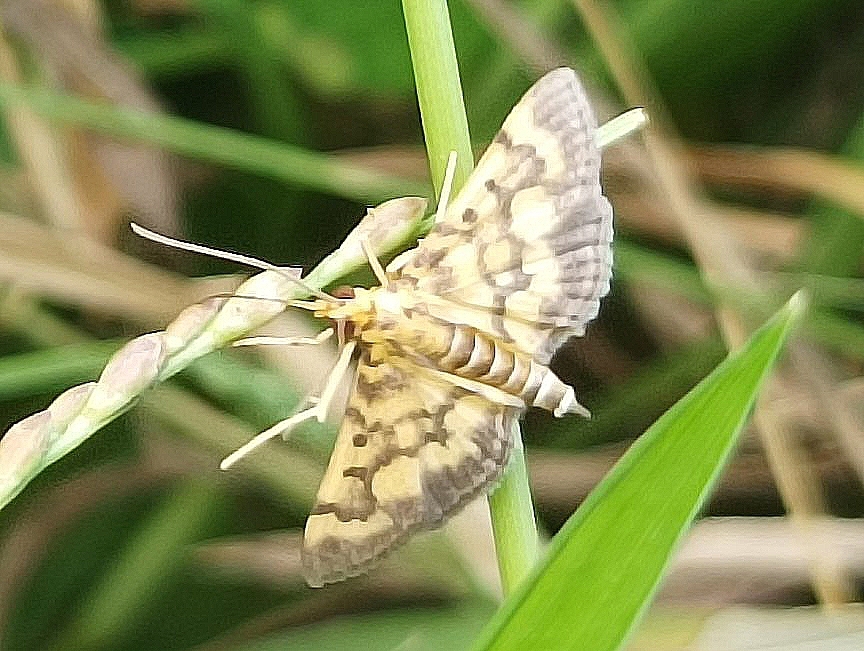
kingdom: Animalia
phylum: Arthropoda
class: Insecta
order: Lepidoptera
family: Crambidae
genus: Omiodes
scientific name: Omiodes diemenalis
